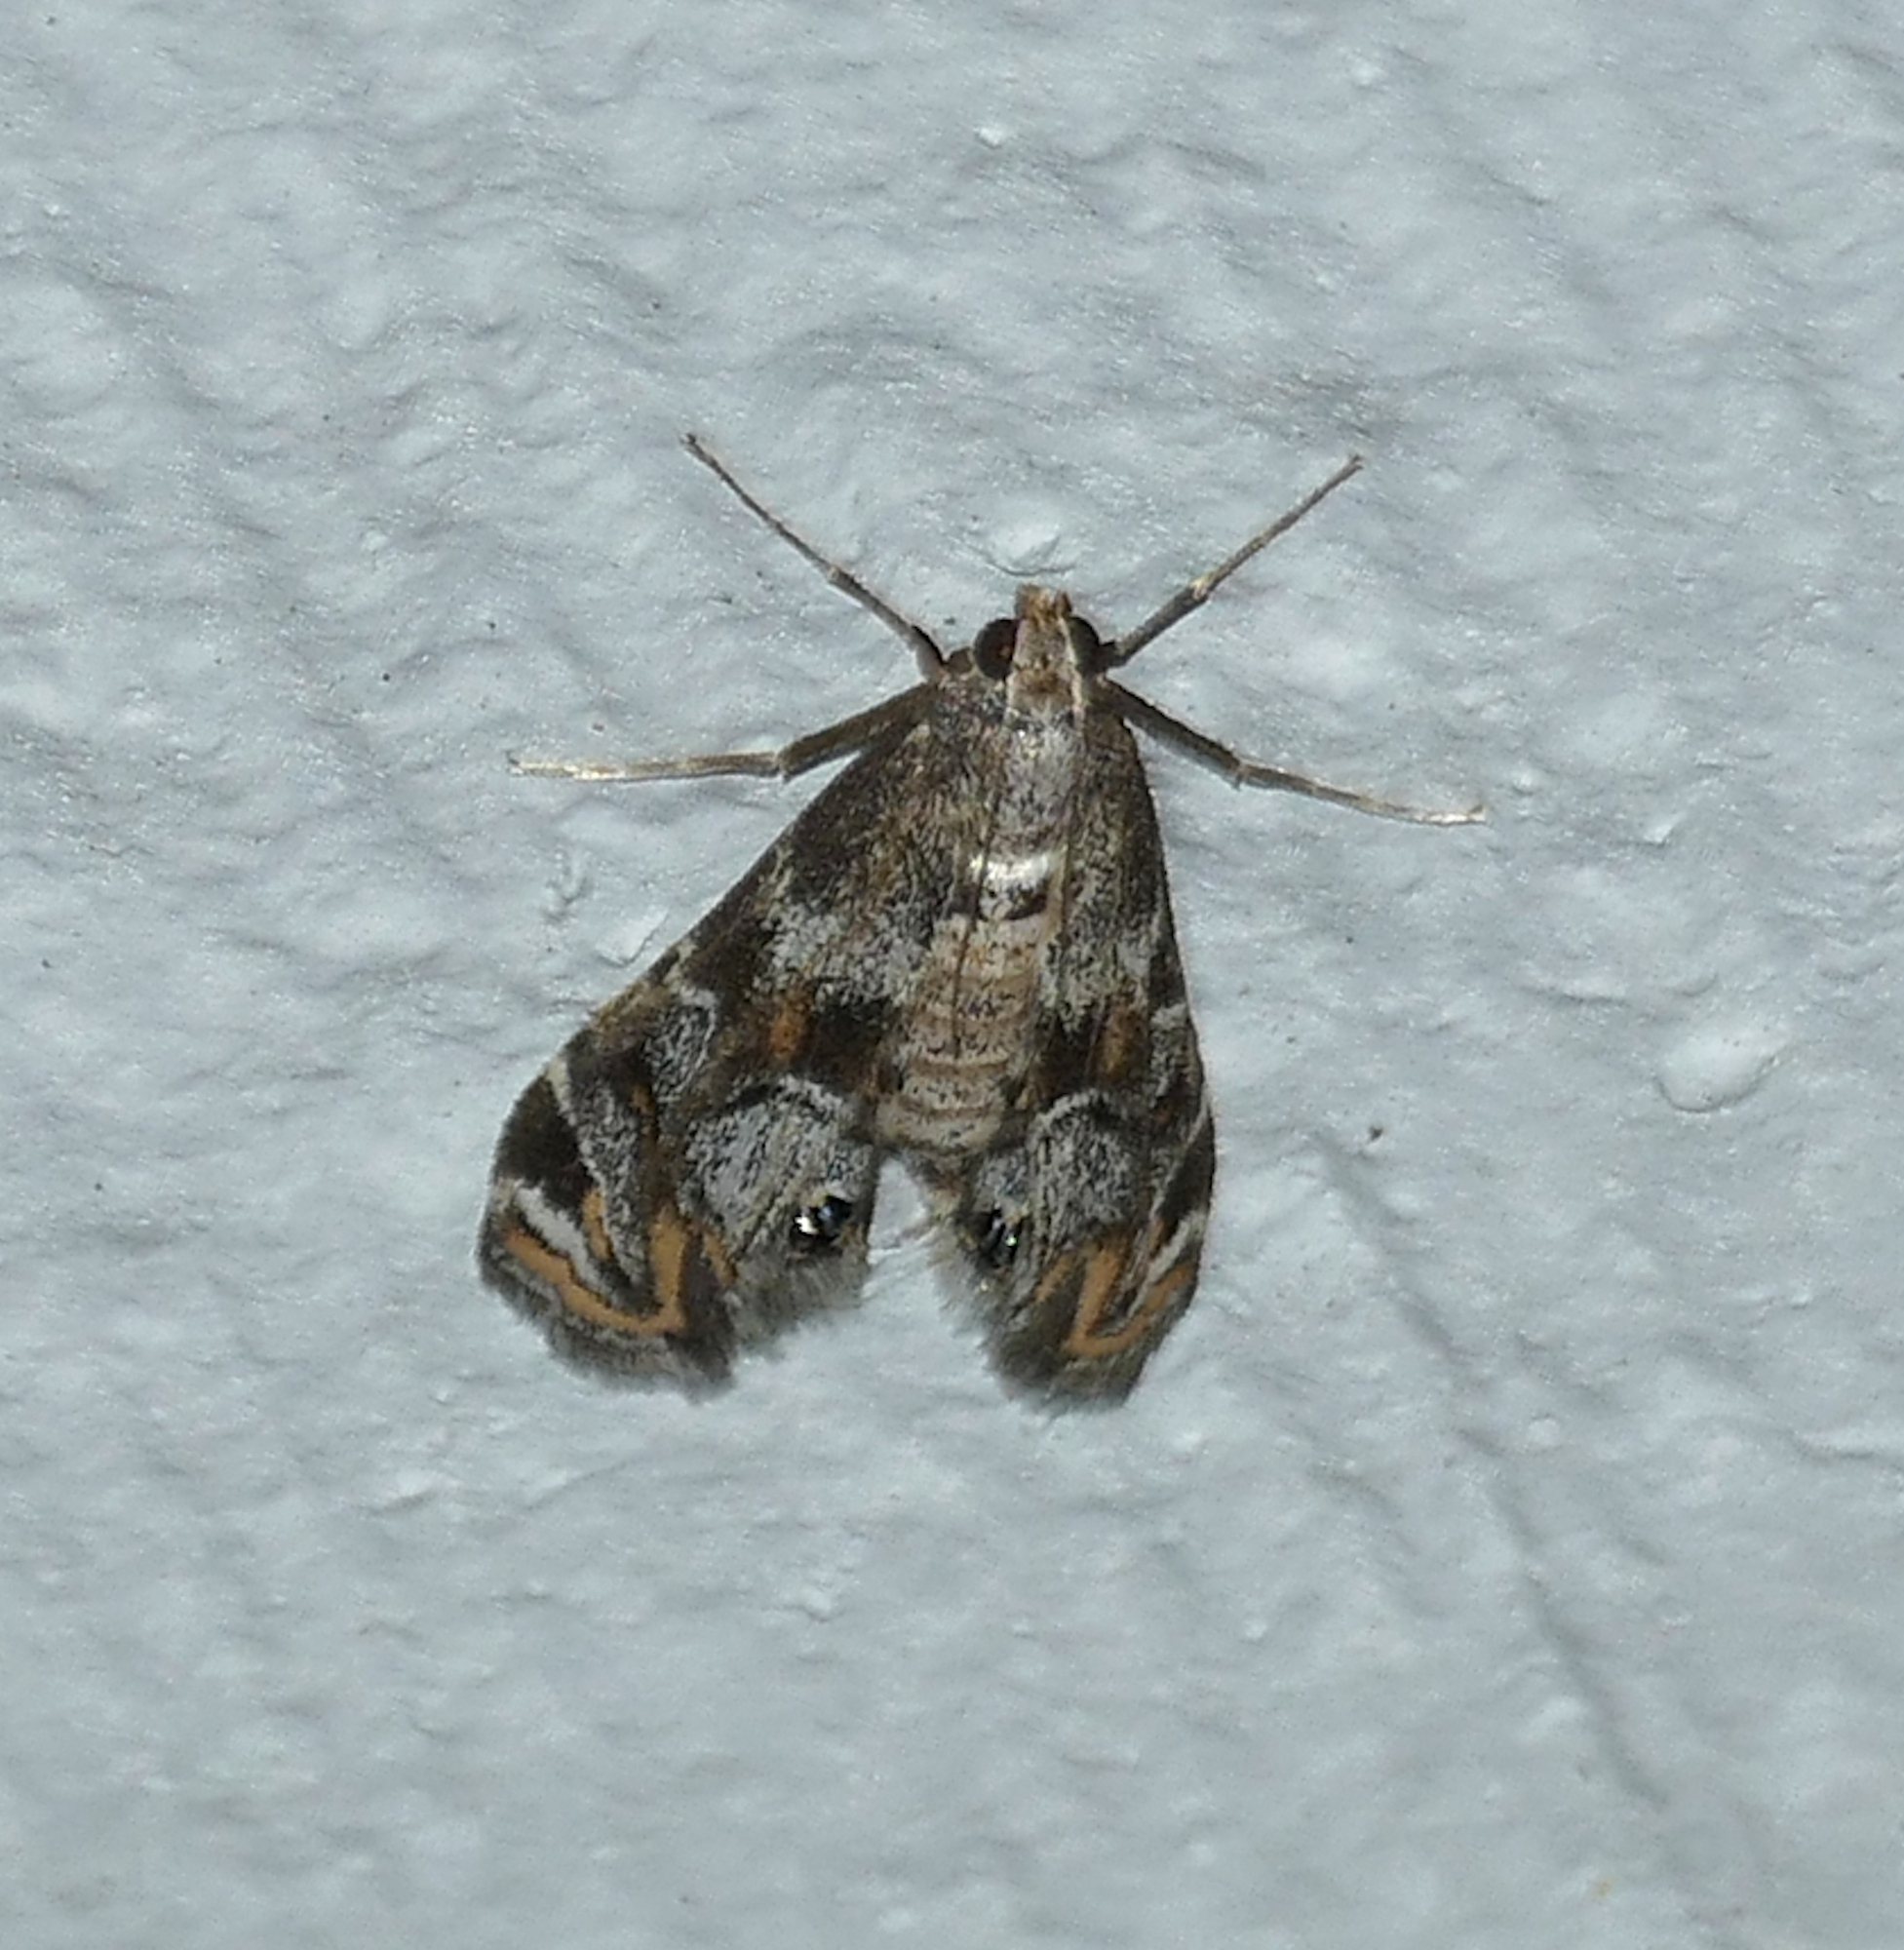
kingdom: Animalia
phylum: Arthropoda
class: Insecta
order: Lepidoptera
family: Crambidae
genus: Petrophila
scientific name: Petrophila longipennis
